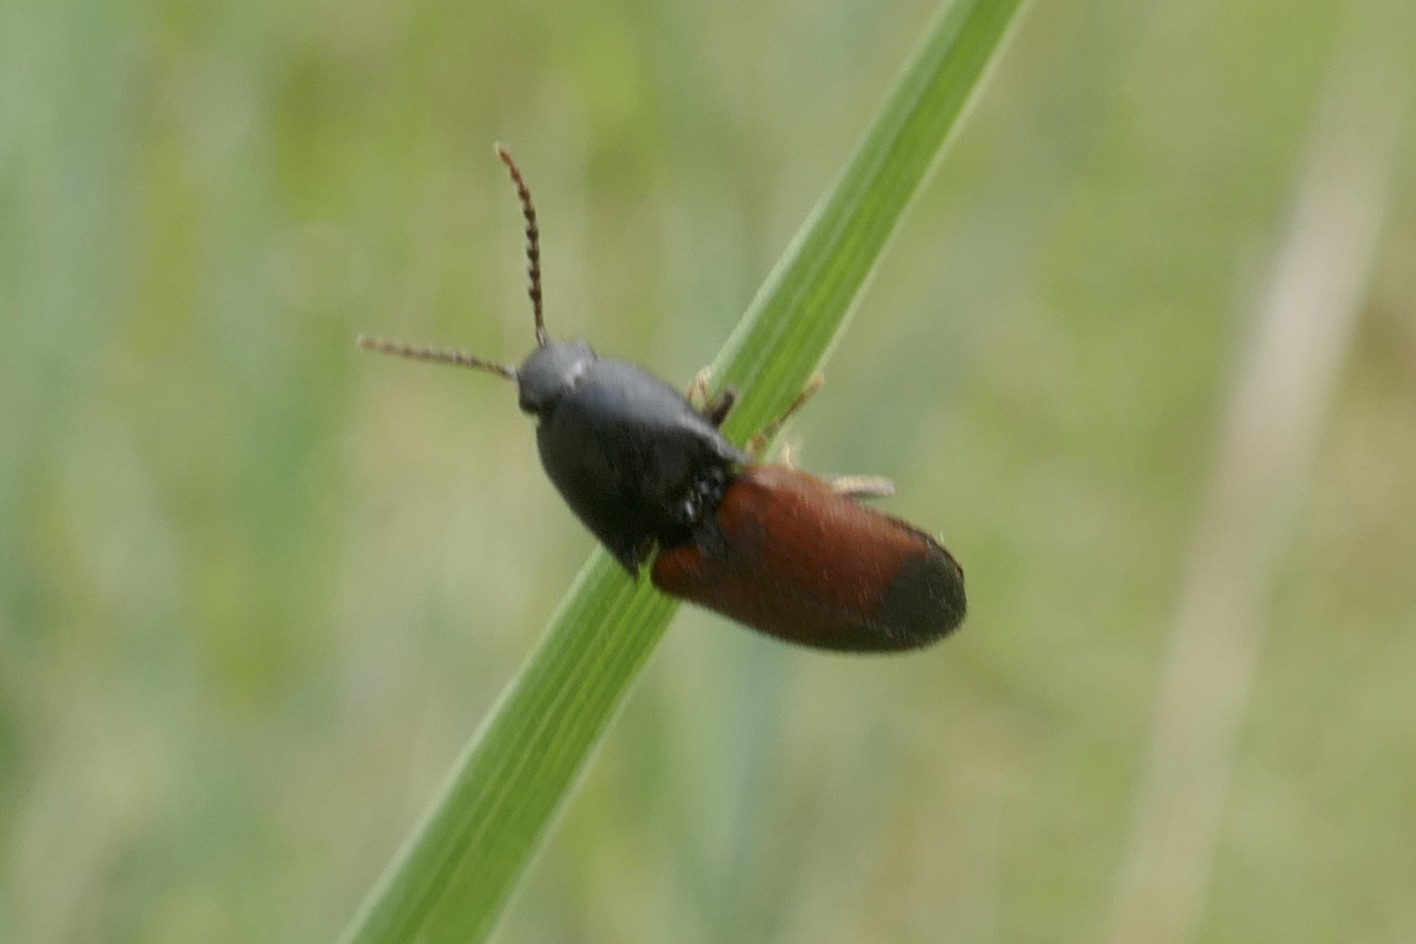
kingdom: Animalia
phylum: Arthropoda
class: Insecta
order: Coleoptera
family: Elateridae
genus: Ampedus
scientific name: Ampedus balteatus
